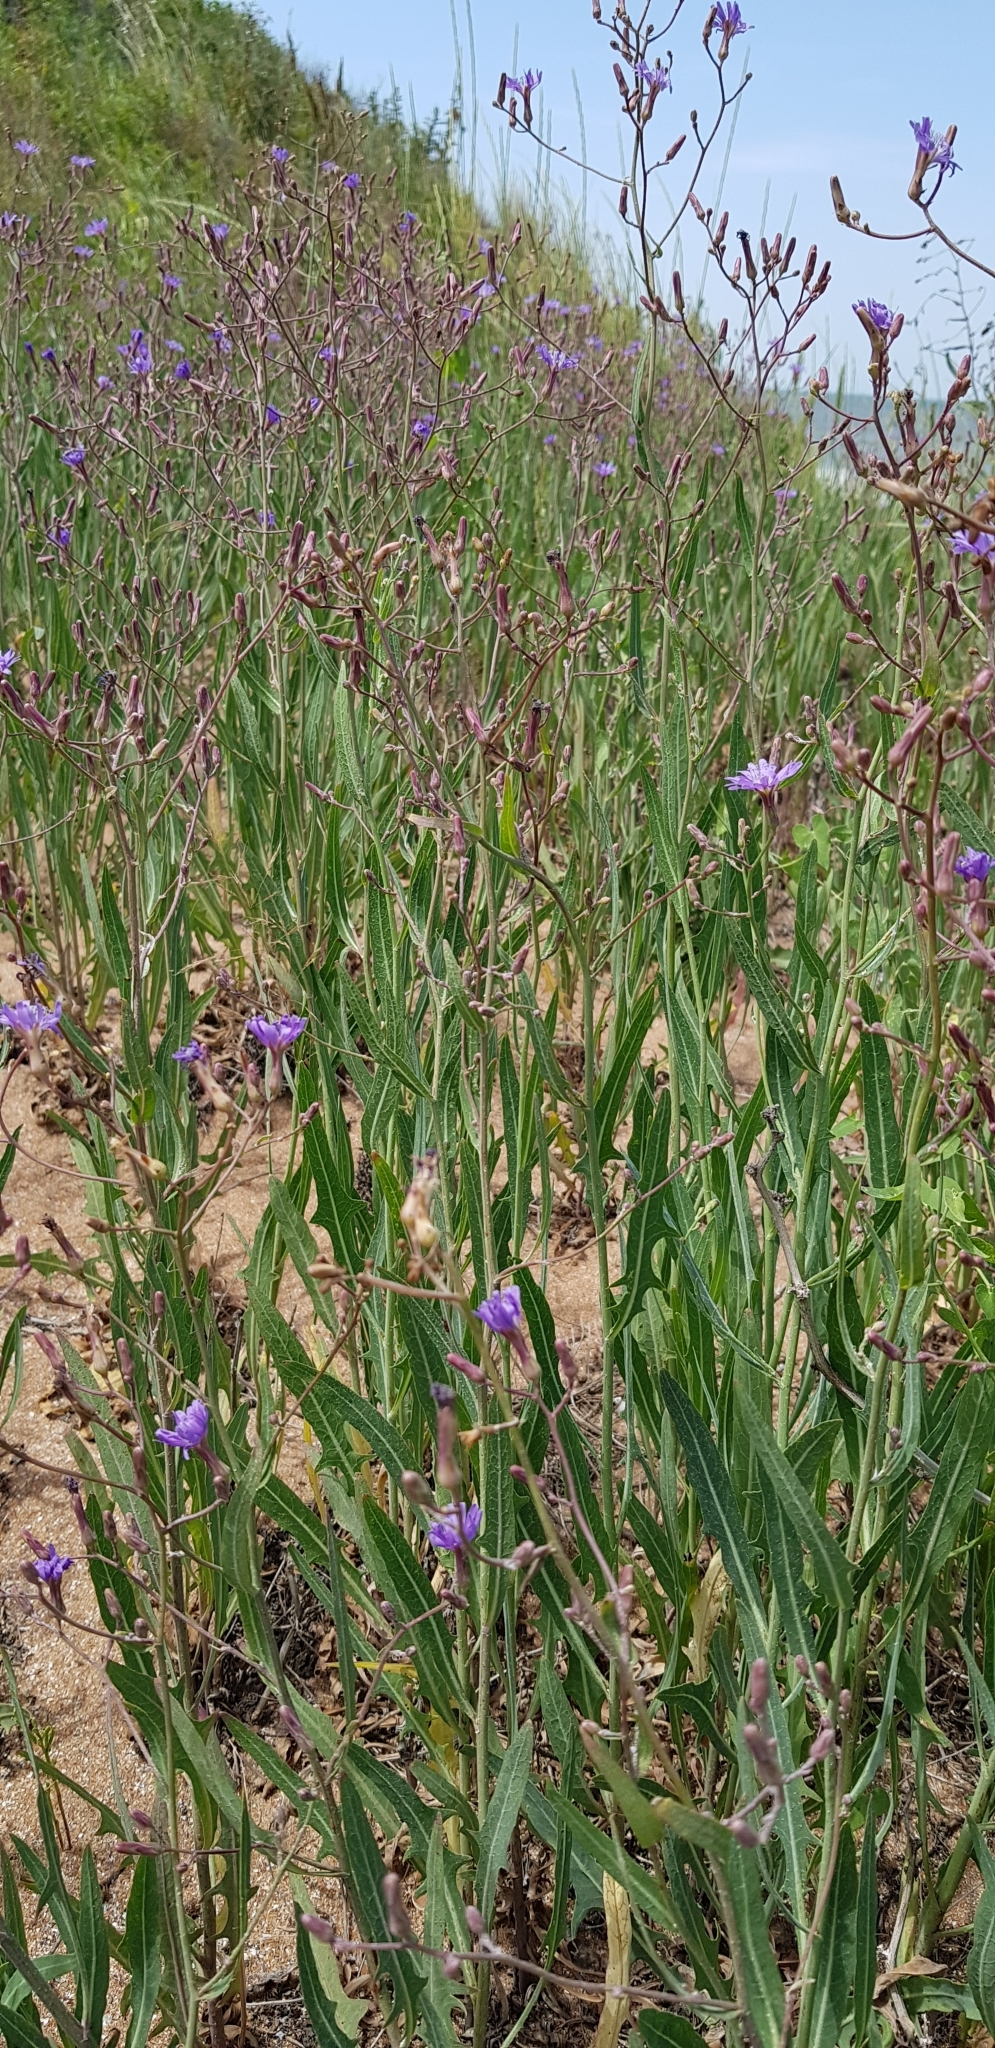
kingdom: Plantae
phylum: Tracheophyta
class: Magnoliopsida
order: Asterales
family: Asteraceae
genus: Lactuca
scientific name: Lactuca tatarica
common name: Blue lettuce
